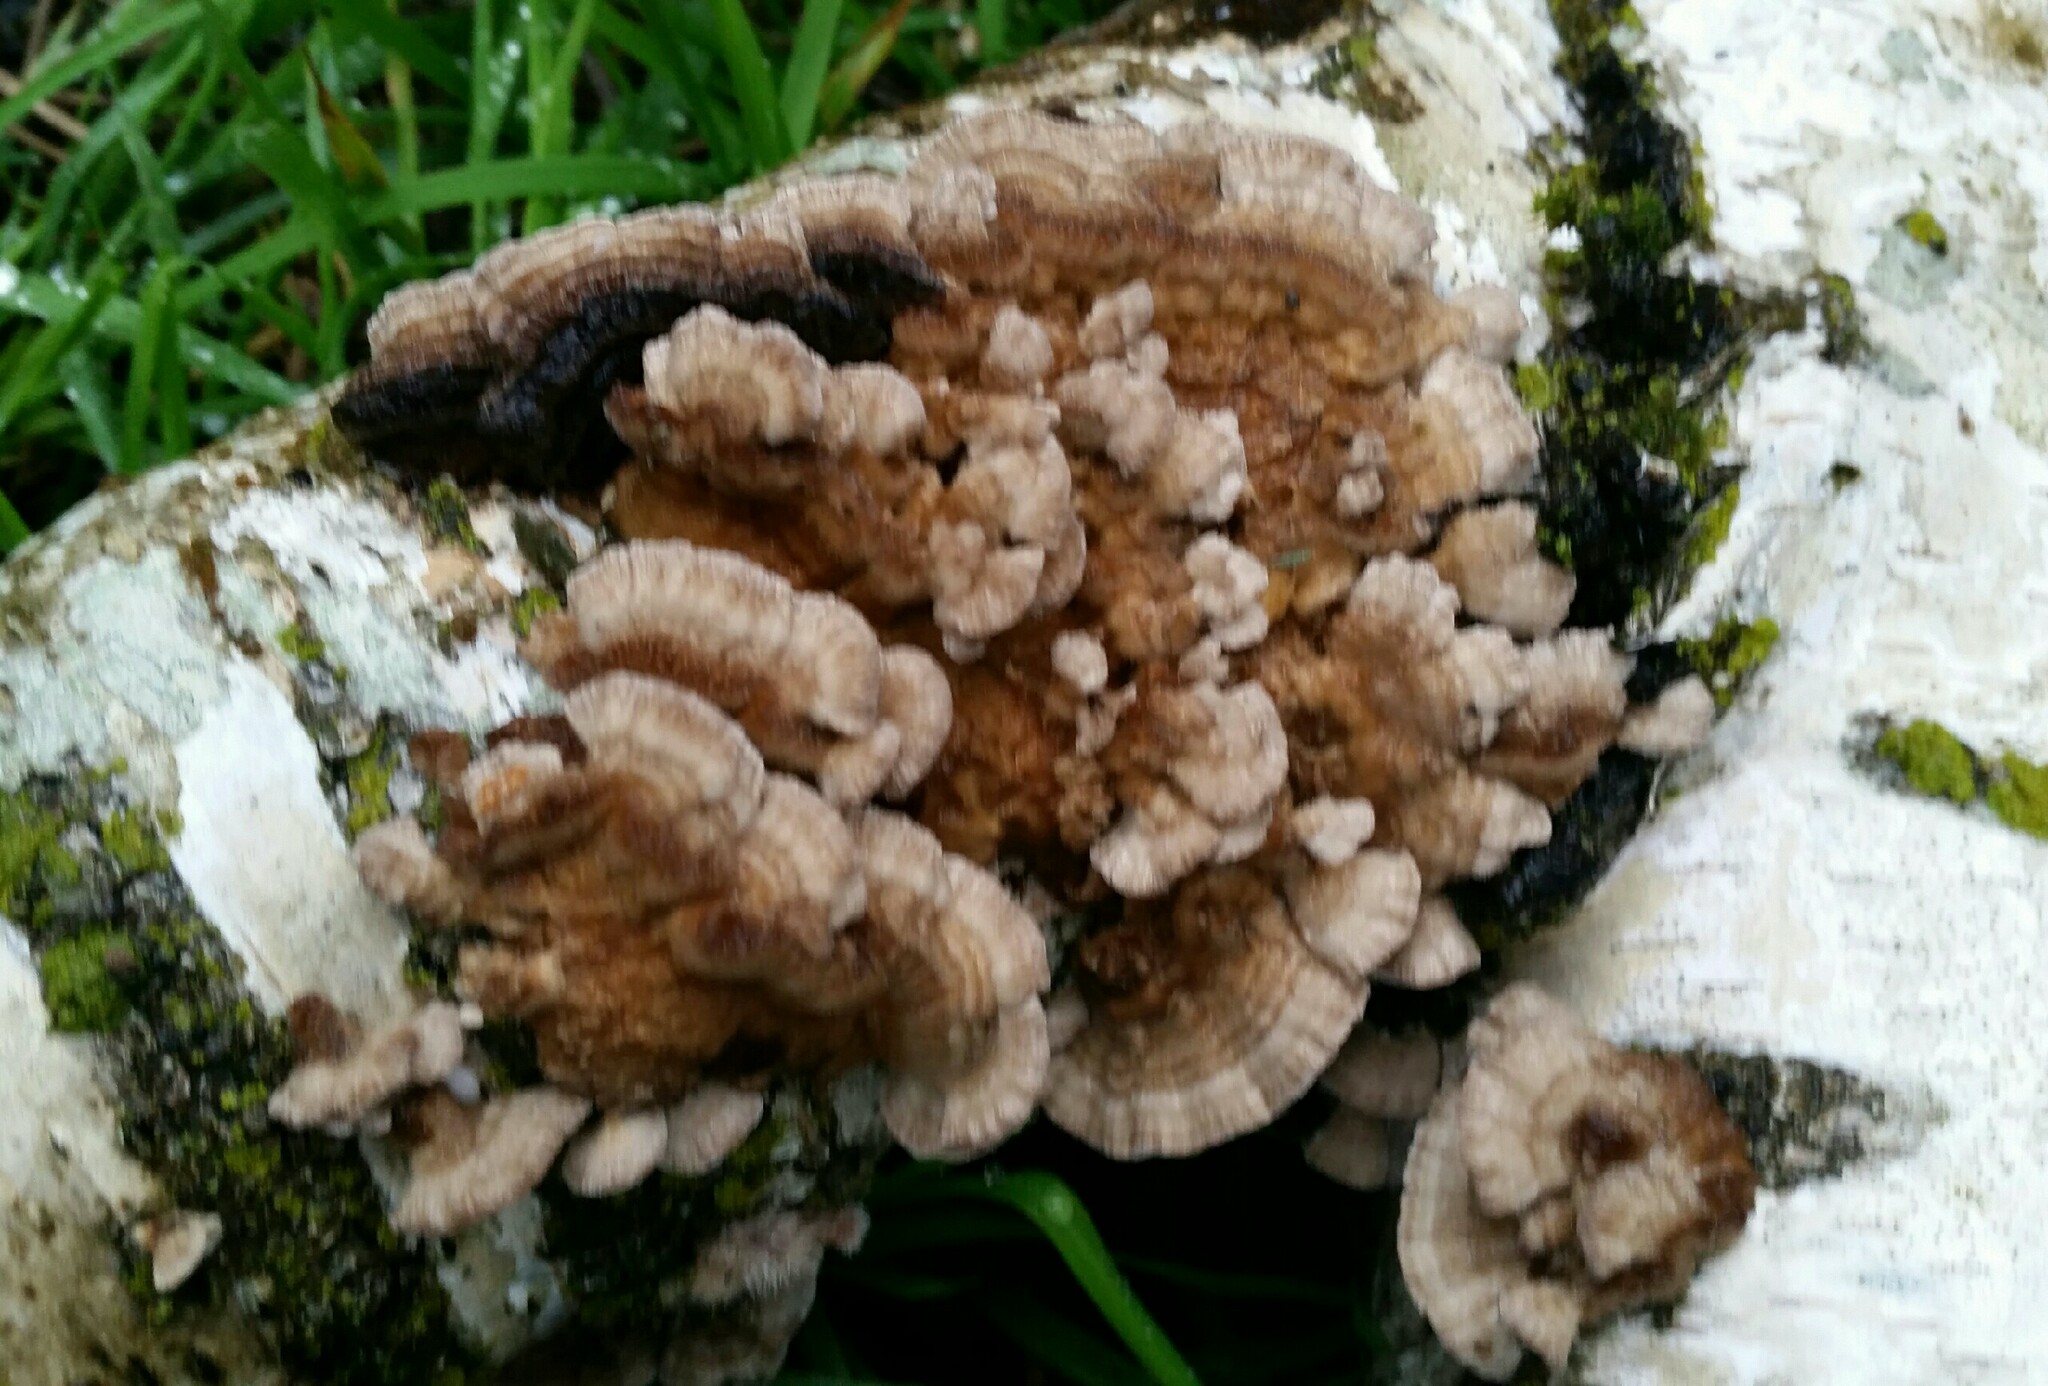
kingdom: Fungi
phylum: Basidiomycota
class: Agaricomycetes
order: Polyporales
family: Polyporaceae
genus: Trametes
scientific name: Trametes versicolor
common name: Turkeytail
